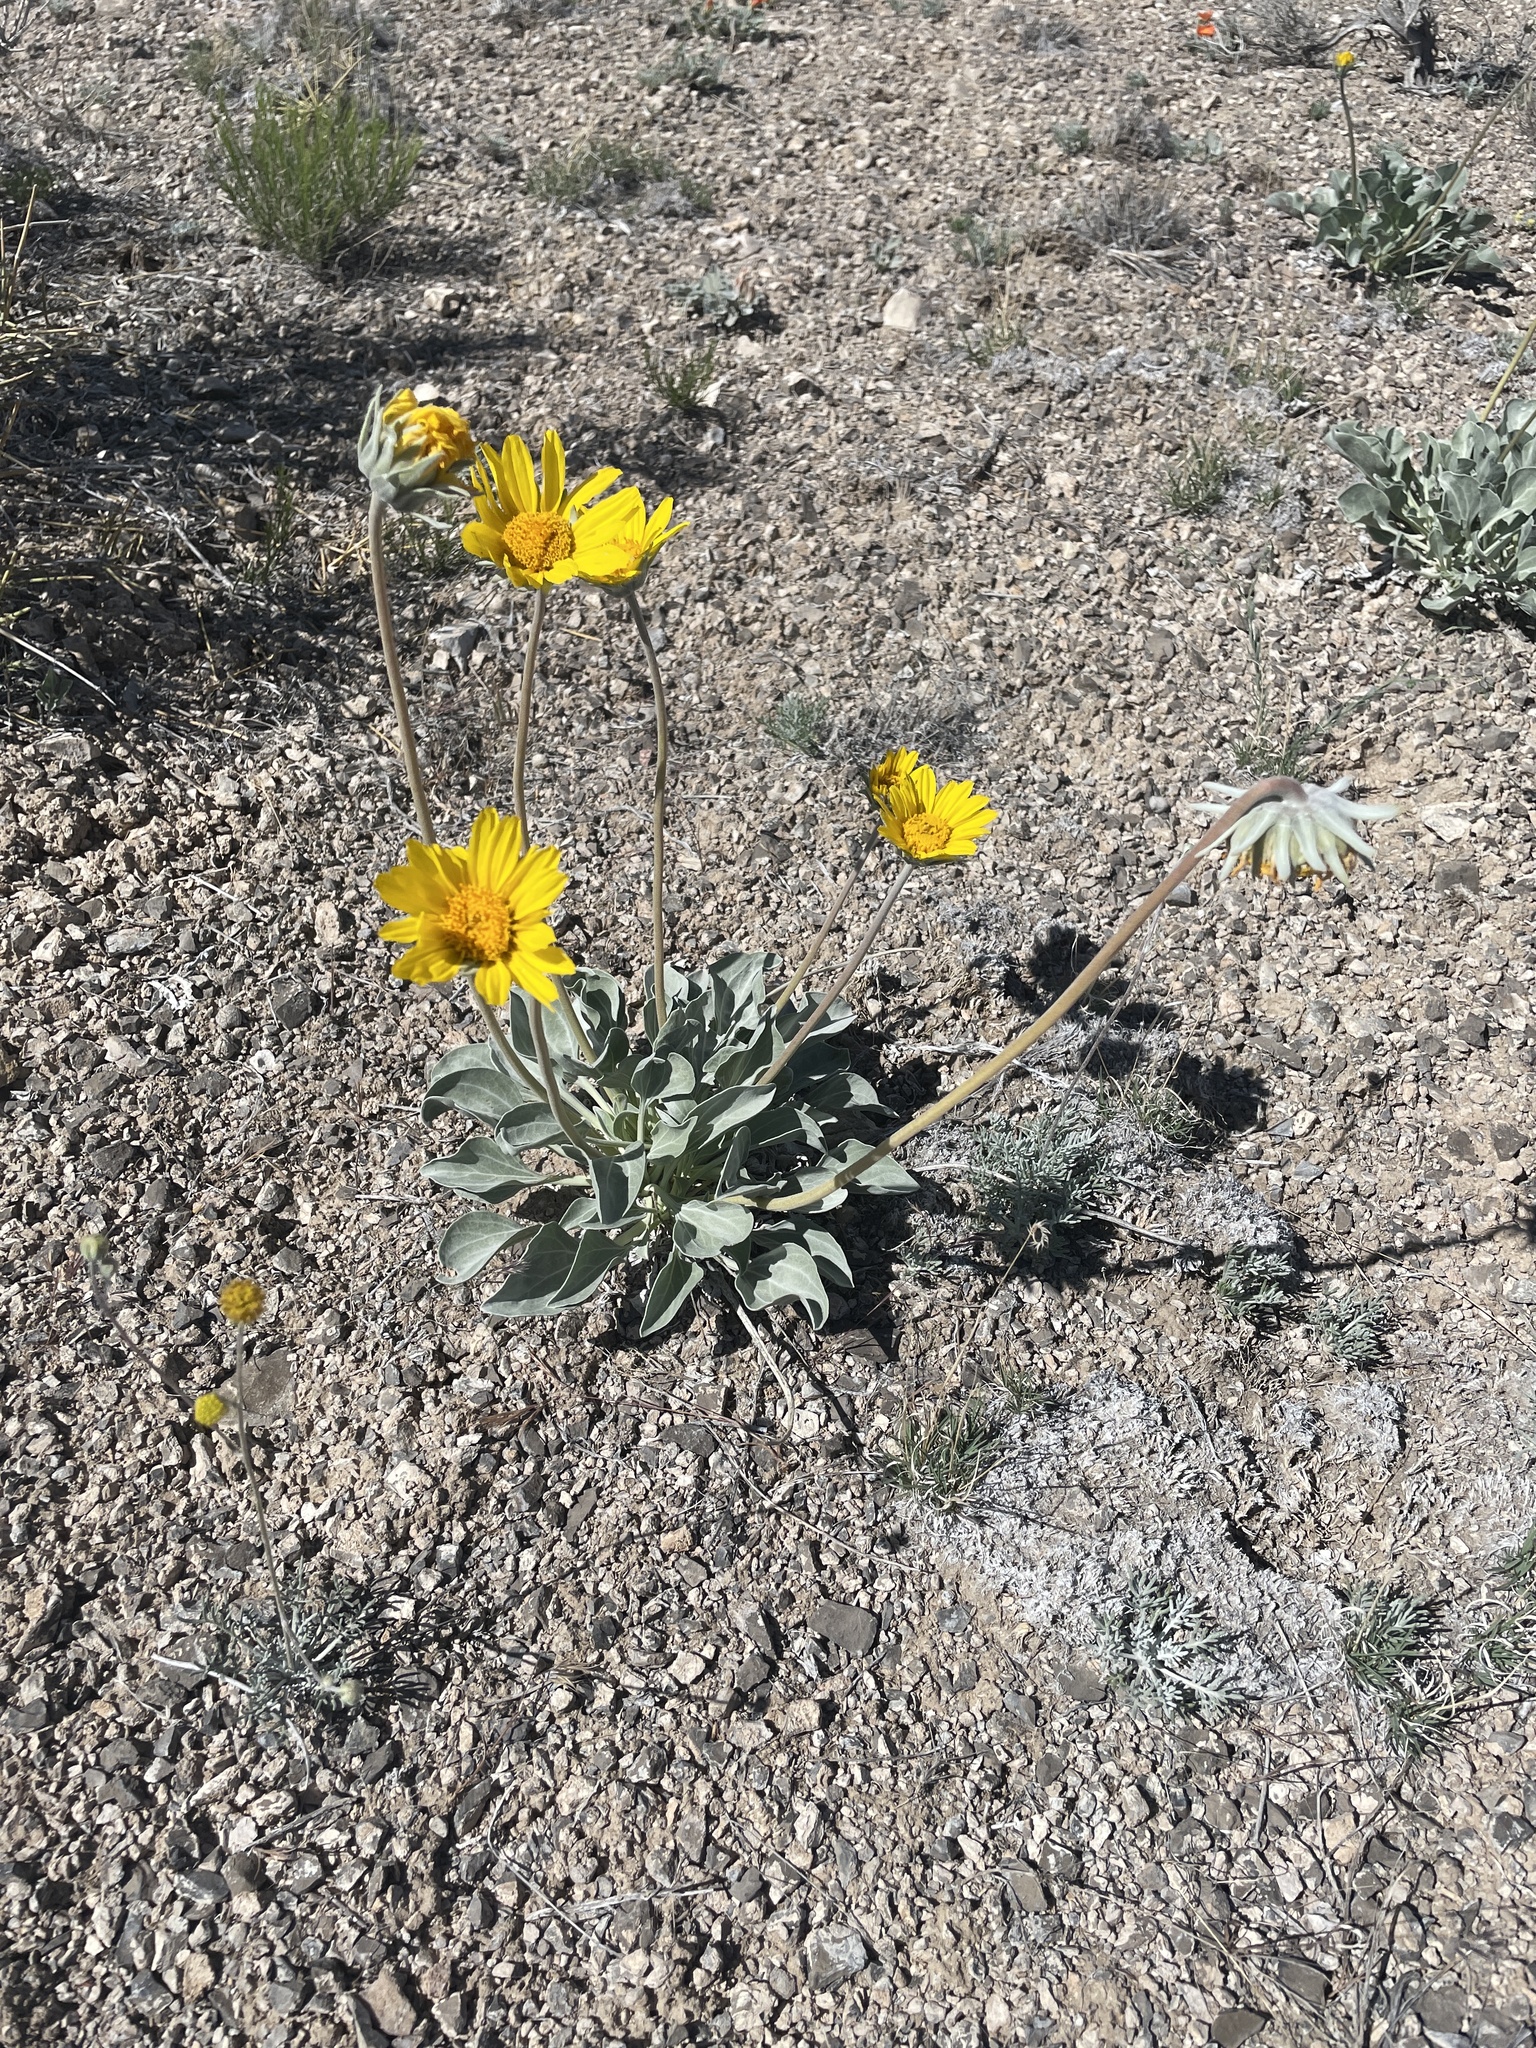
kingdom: Plantae
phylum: Tracheophyta
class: Magnoliopsida
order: Asterales
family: Asteraceae
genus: Enceliopsis
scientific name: Enceliopsis nudicaulis
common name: Naked-stem daisy
